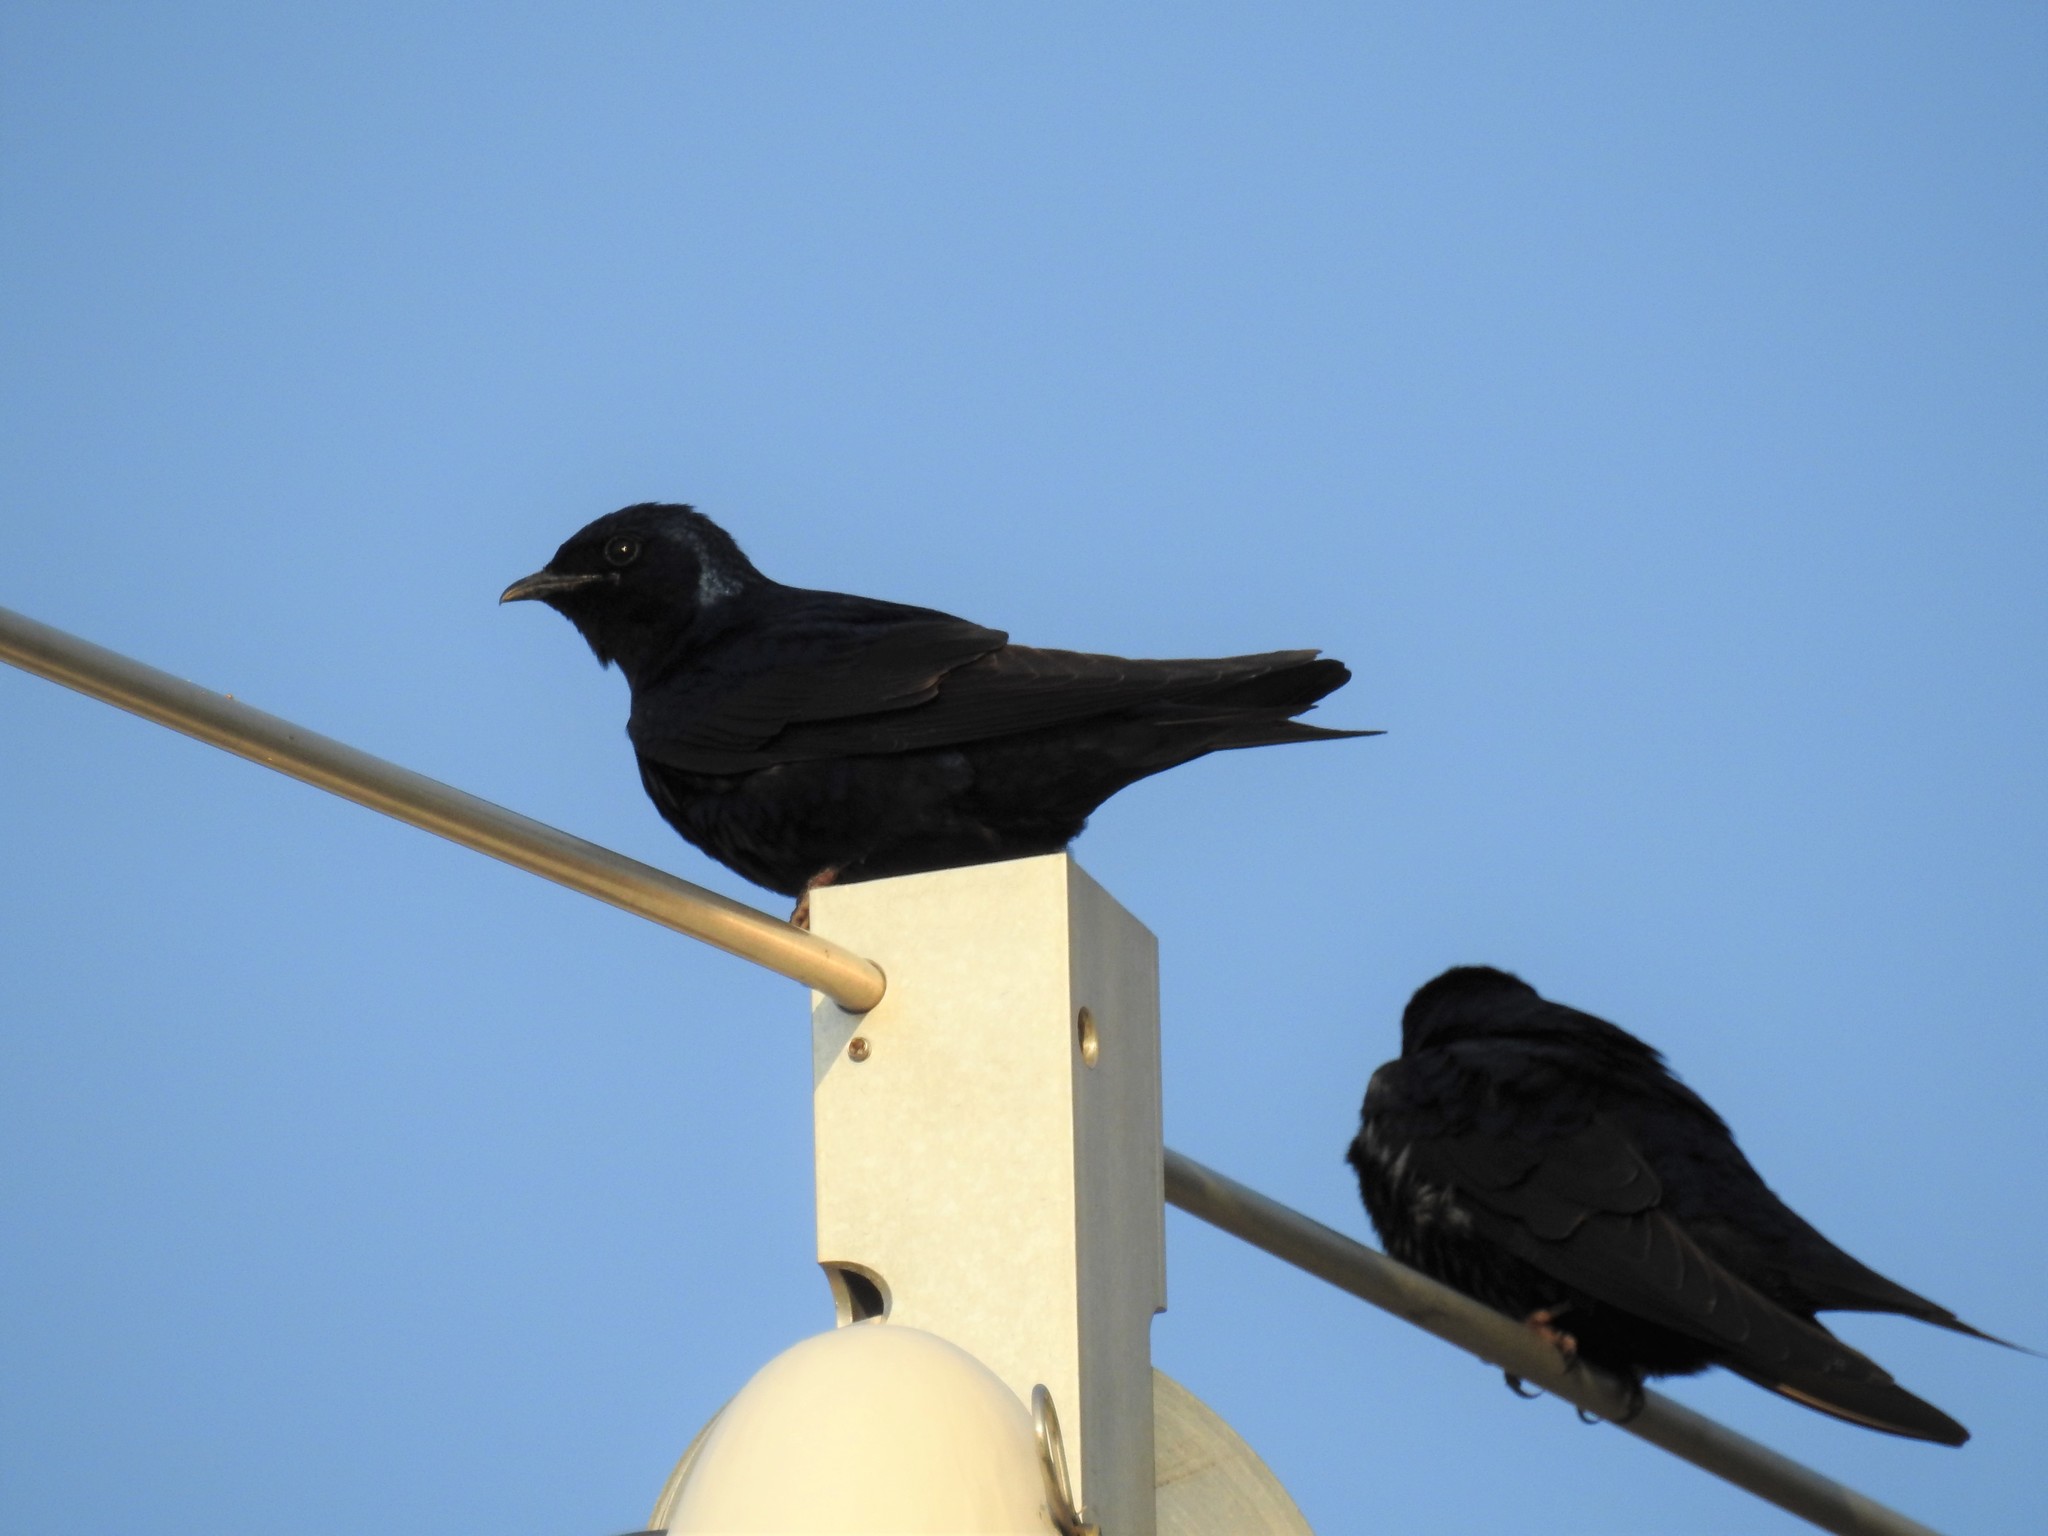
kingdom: Animalia
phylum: Chordata
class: Aves
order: Passeriformes
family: Hirundinidae
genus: Progne
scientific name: Progne subis
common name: Purple martin
